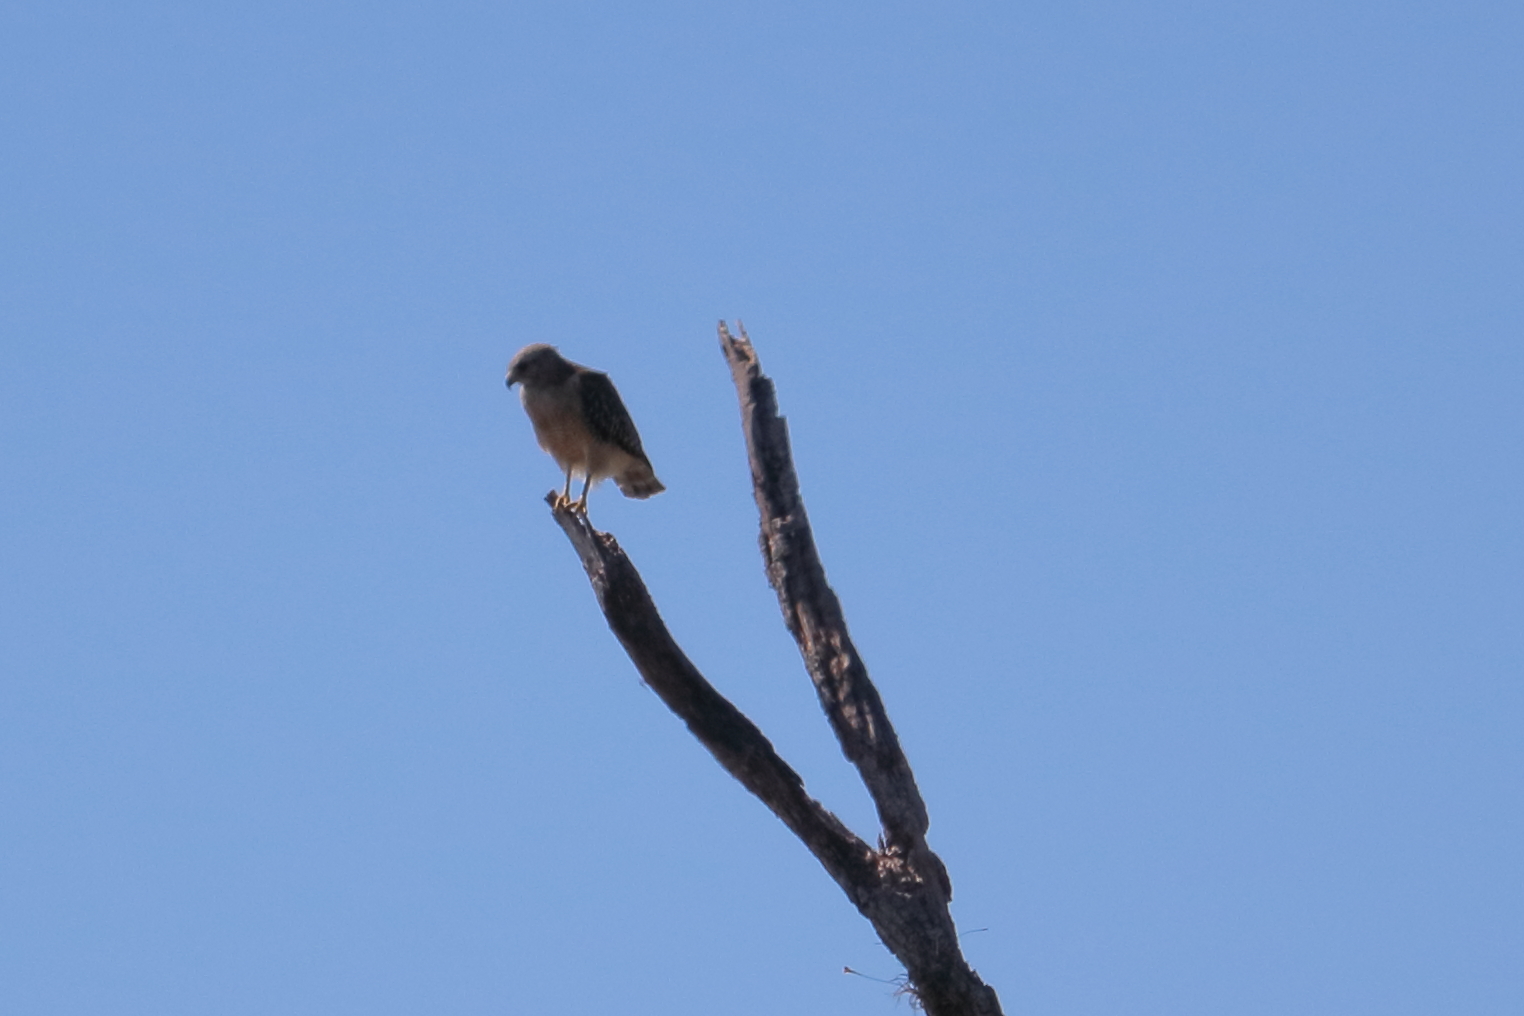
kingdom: Animalia
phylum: Chordata
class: Aves
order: Accipitriformes
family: Accipitridae
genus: Buteo
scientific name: Buteo lineatus
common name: Red-shouldered hawk
